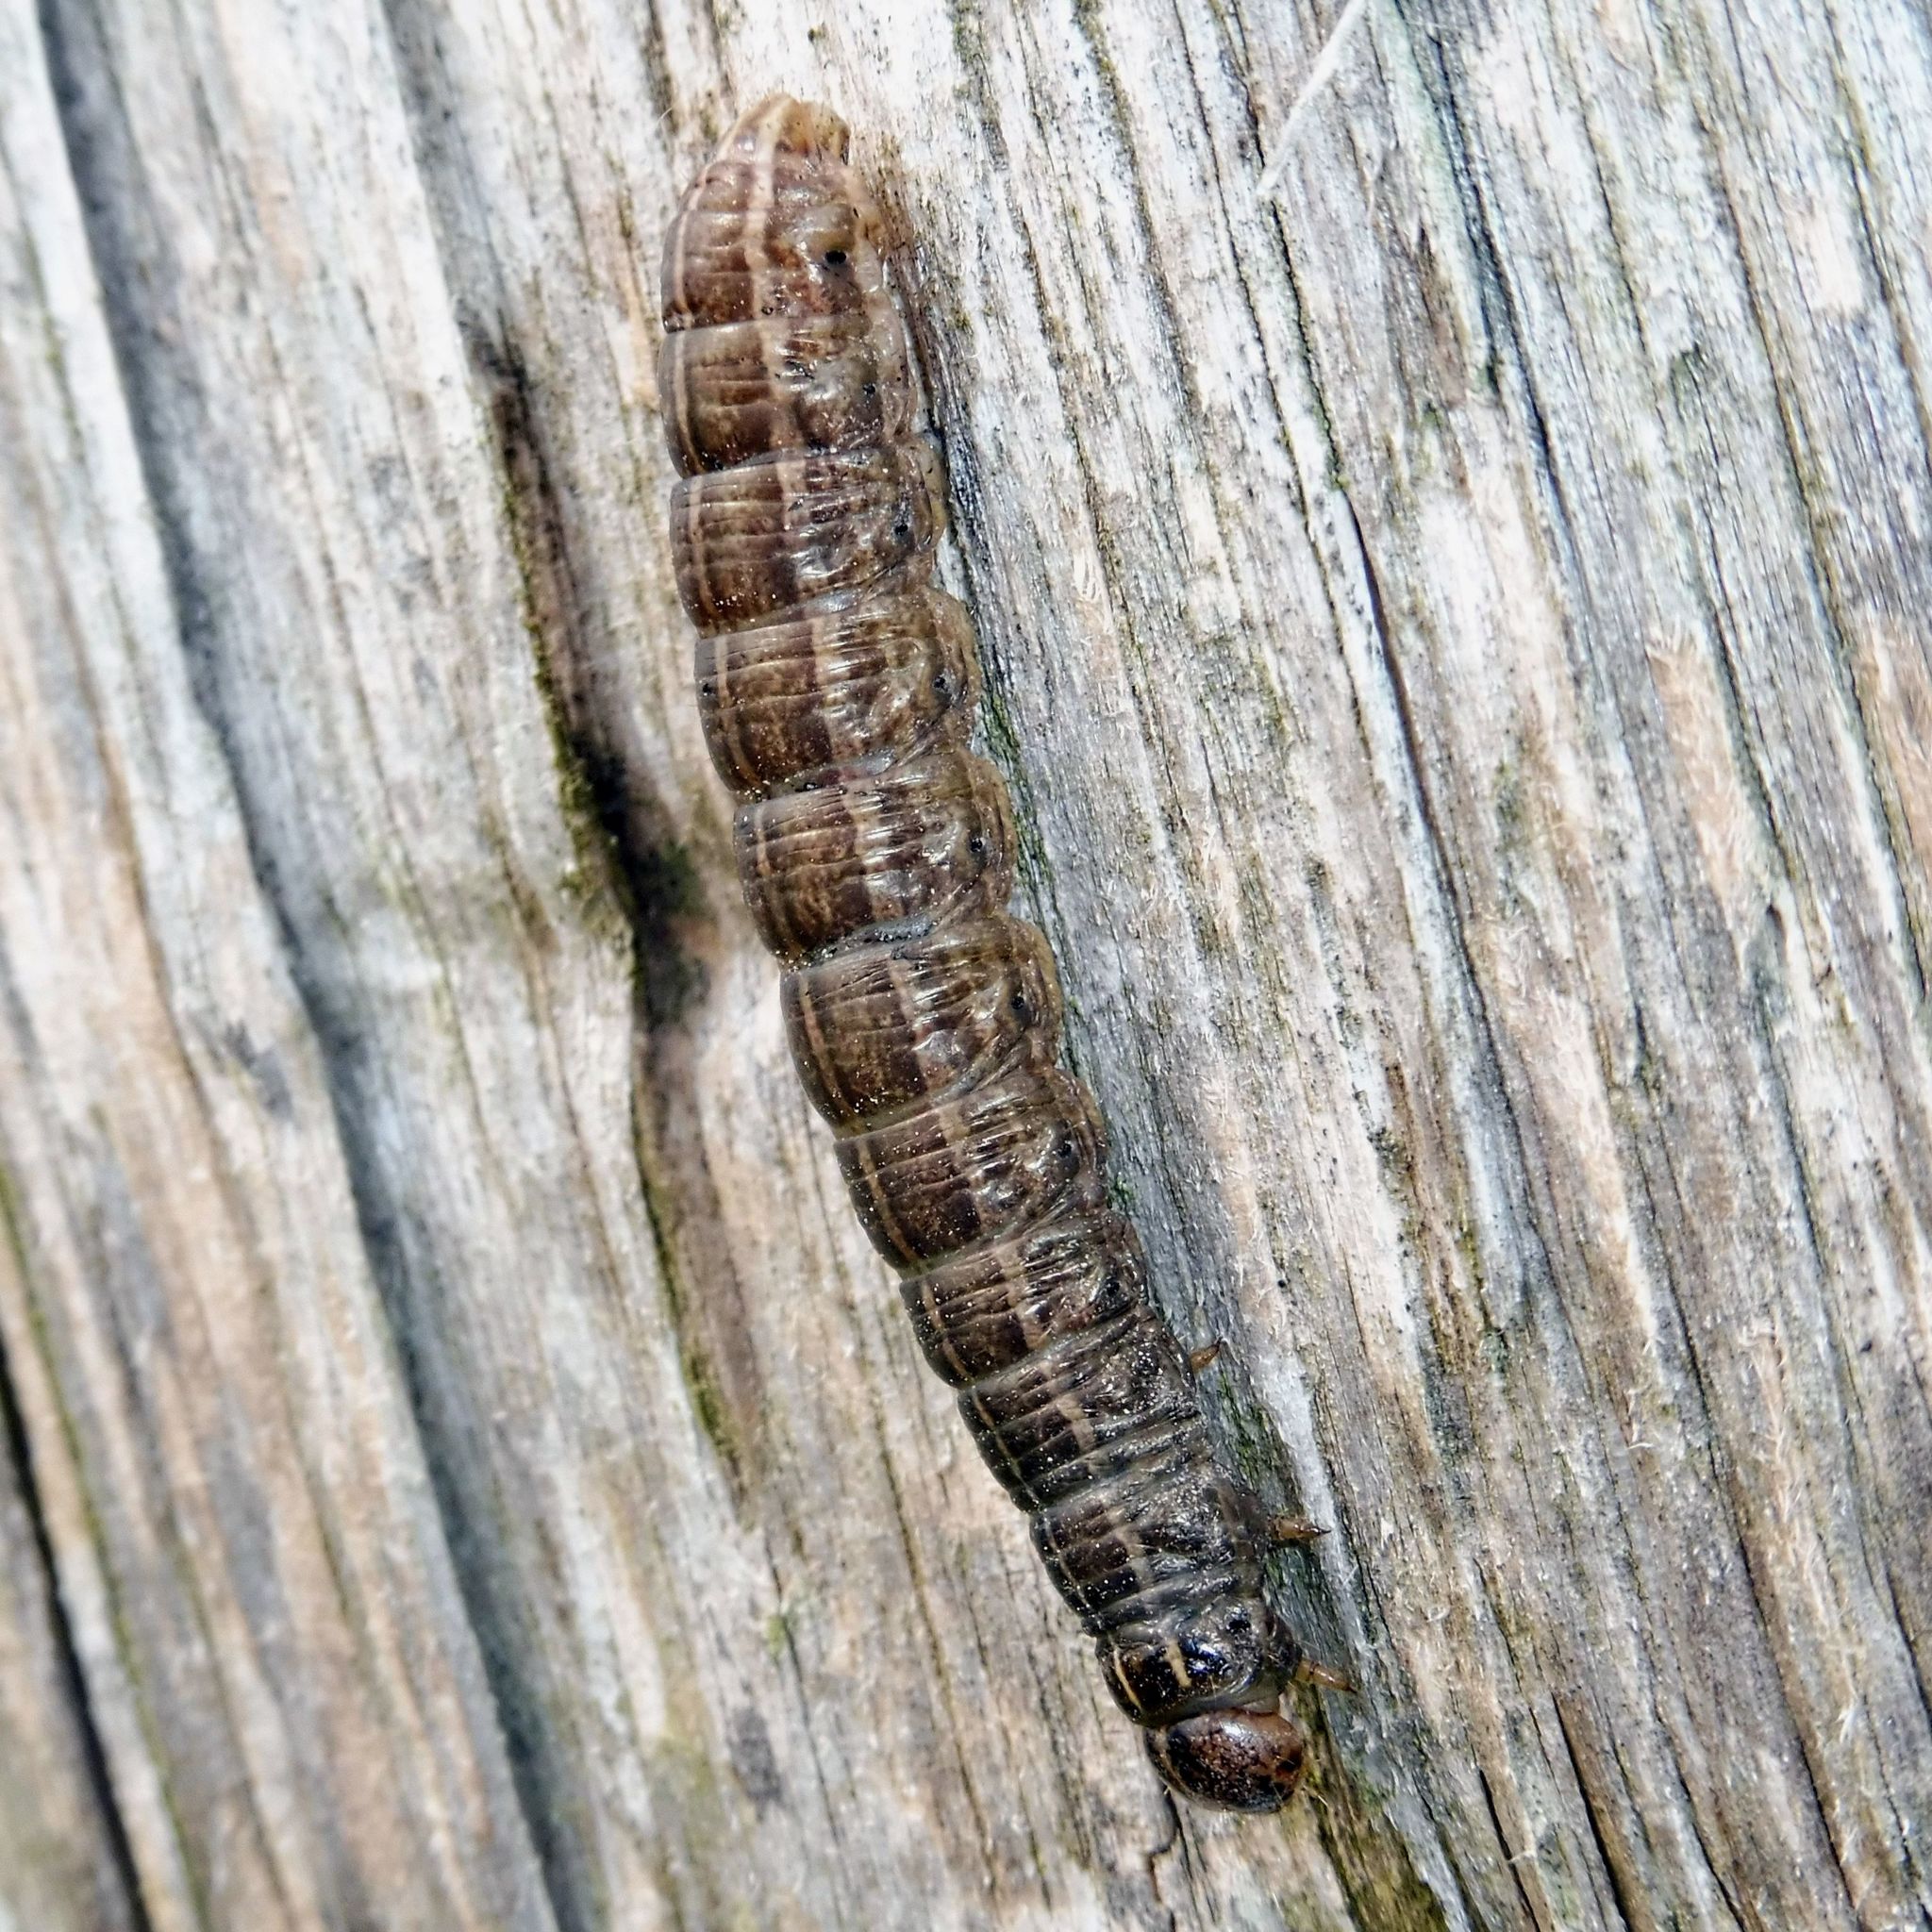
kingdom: Animalia
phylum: Arthropoda
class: Insecta
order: Lepidoptera
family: Noctuidae
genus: Tholera
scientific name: Tholera cespitis
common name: Hedge rustic
